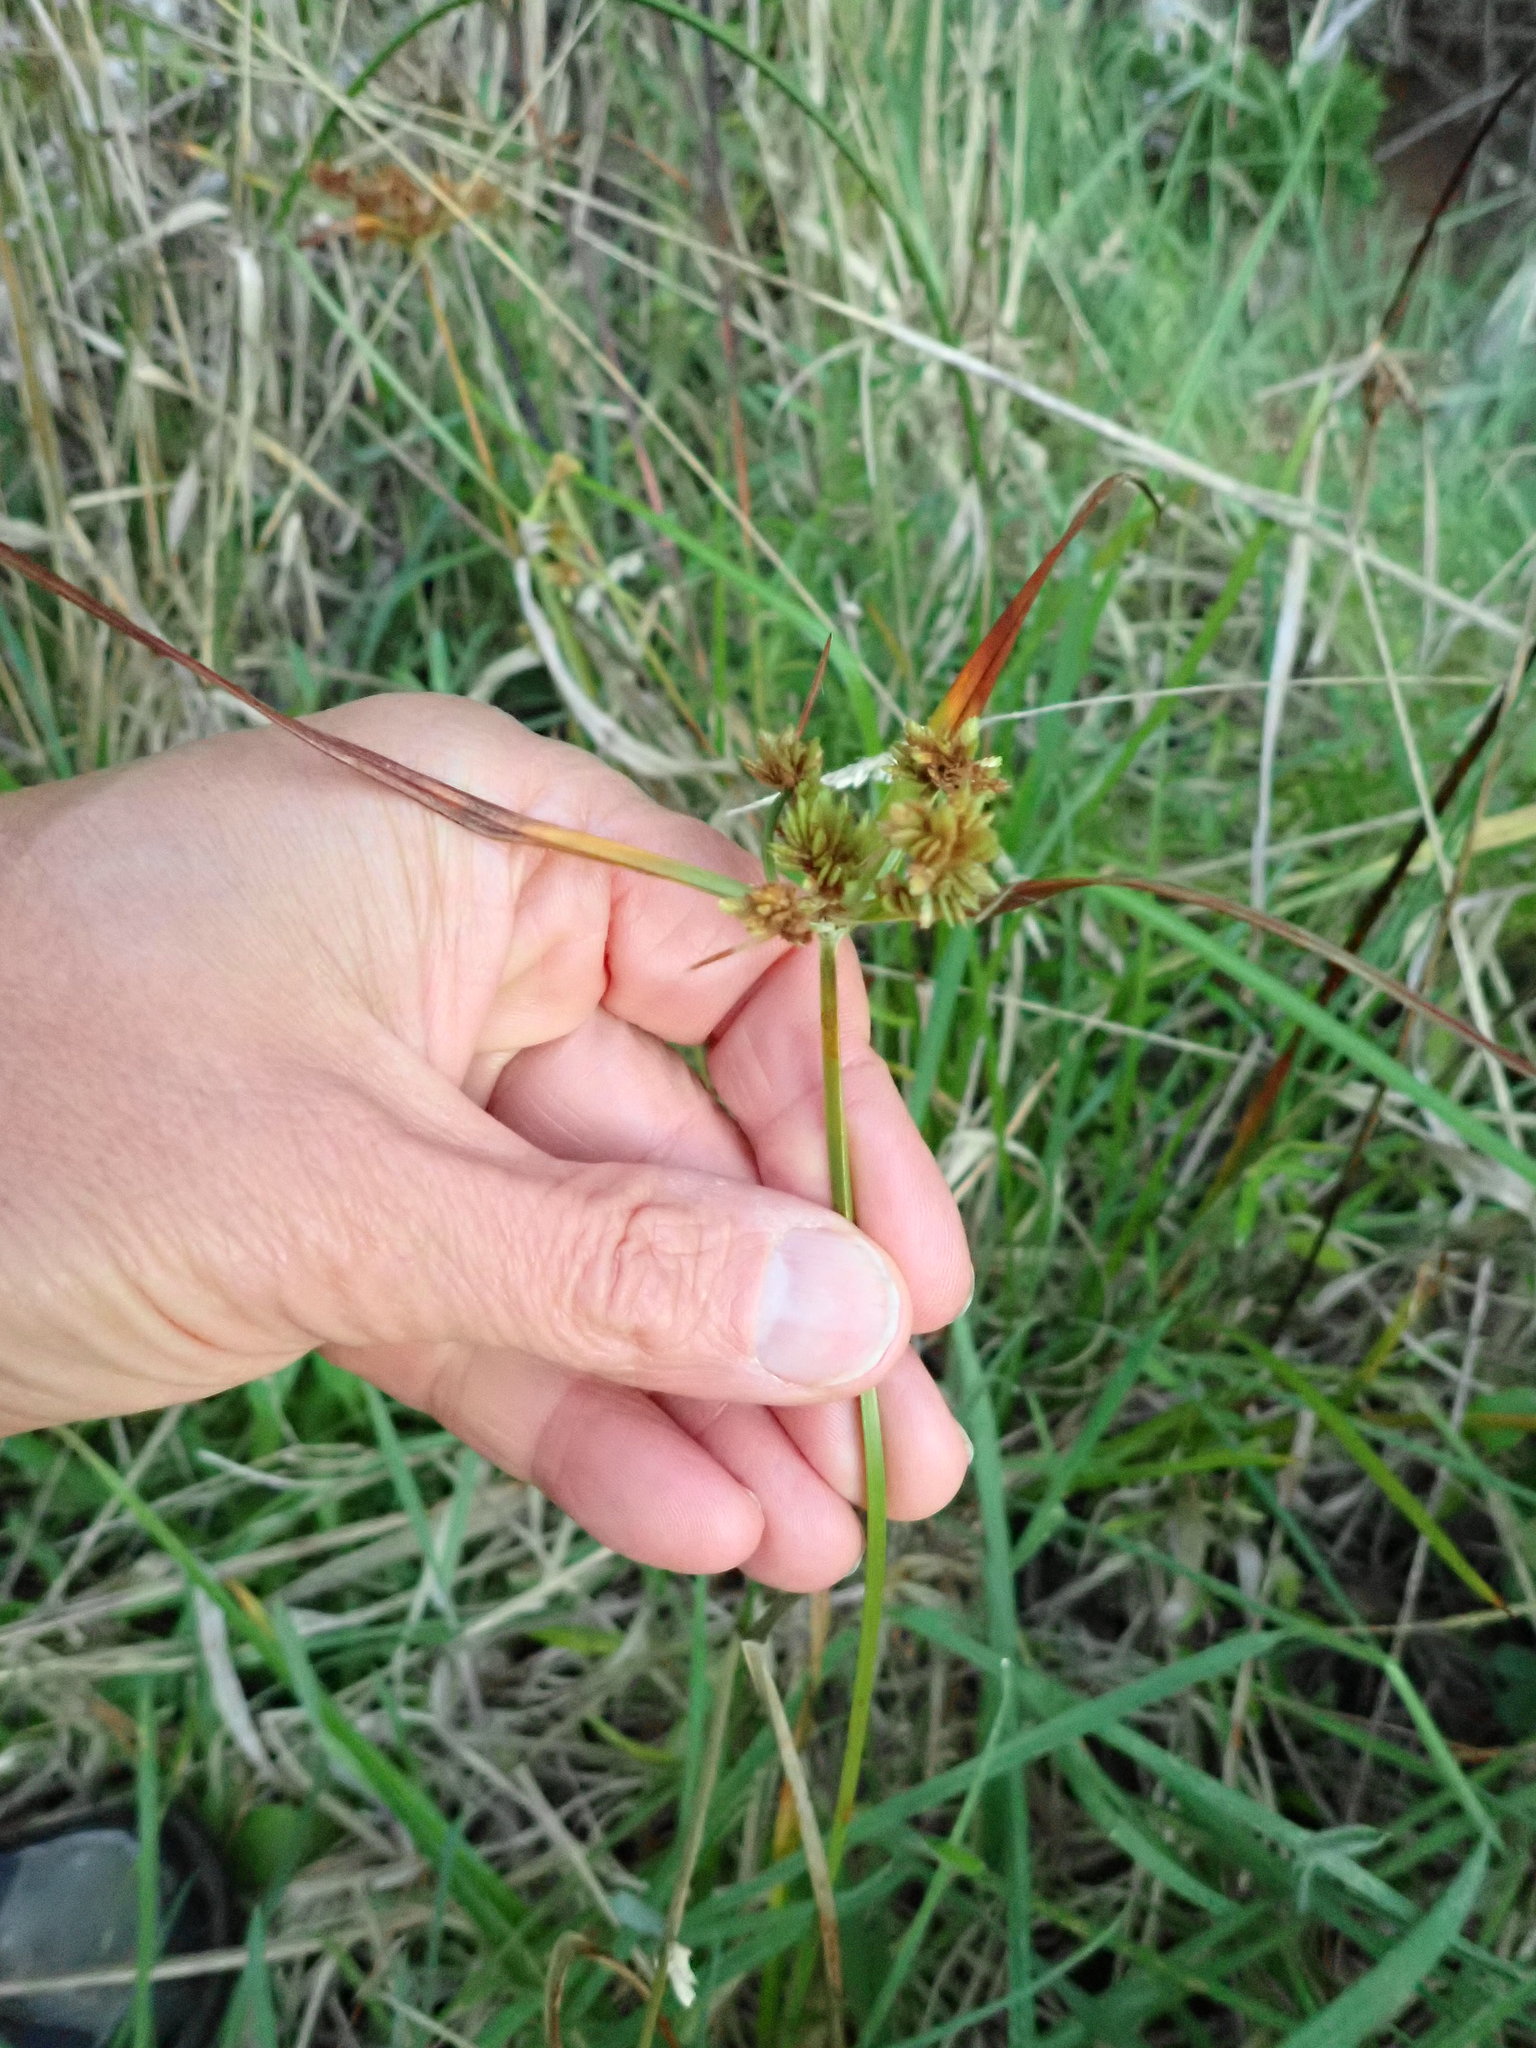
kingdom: Plantae
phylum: Tracheophyta
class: Liliopsida
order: Poales
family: Cyperaceae
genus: Cyperus
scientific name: Cyperus eragrostis
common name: Tall flatsedge
